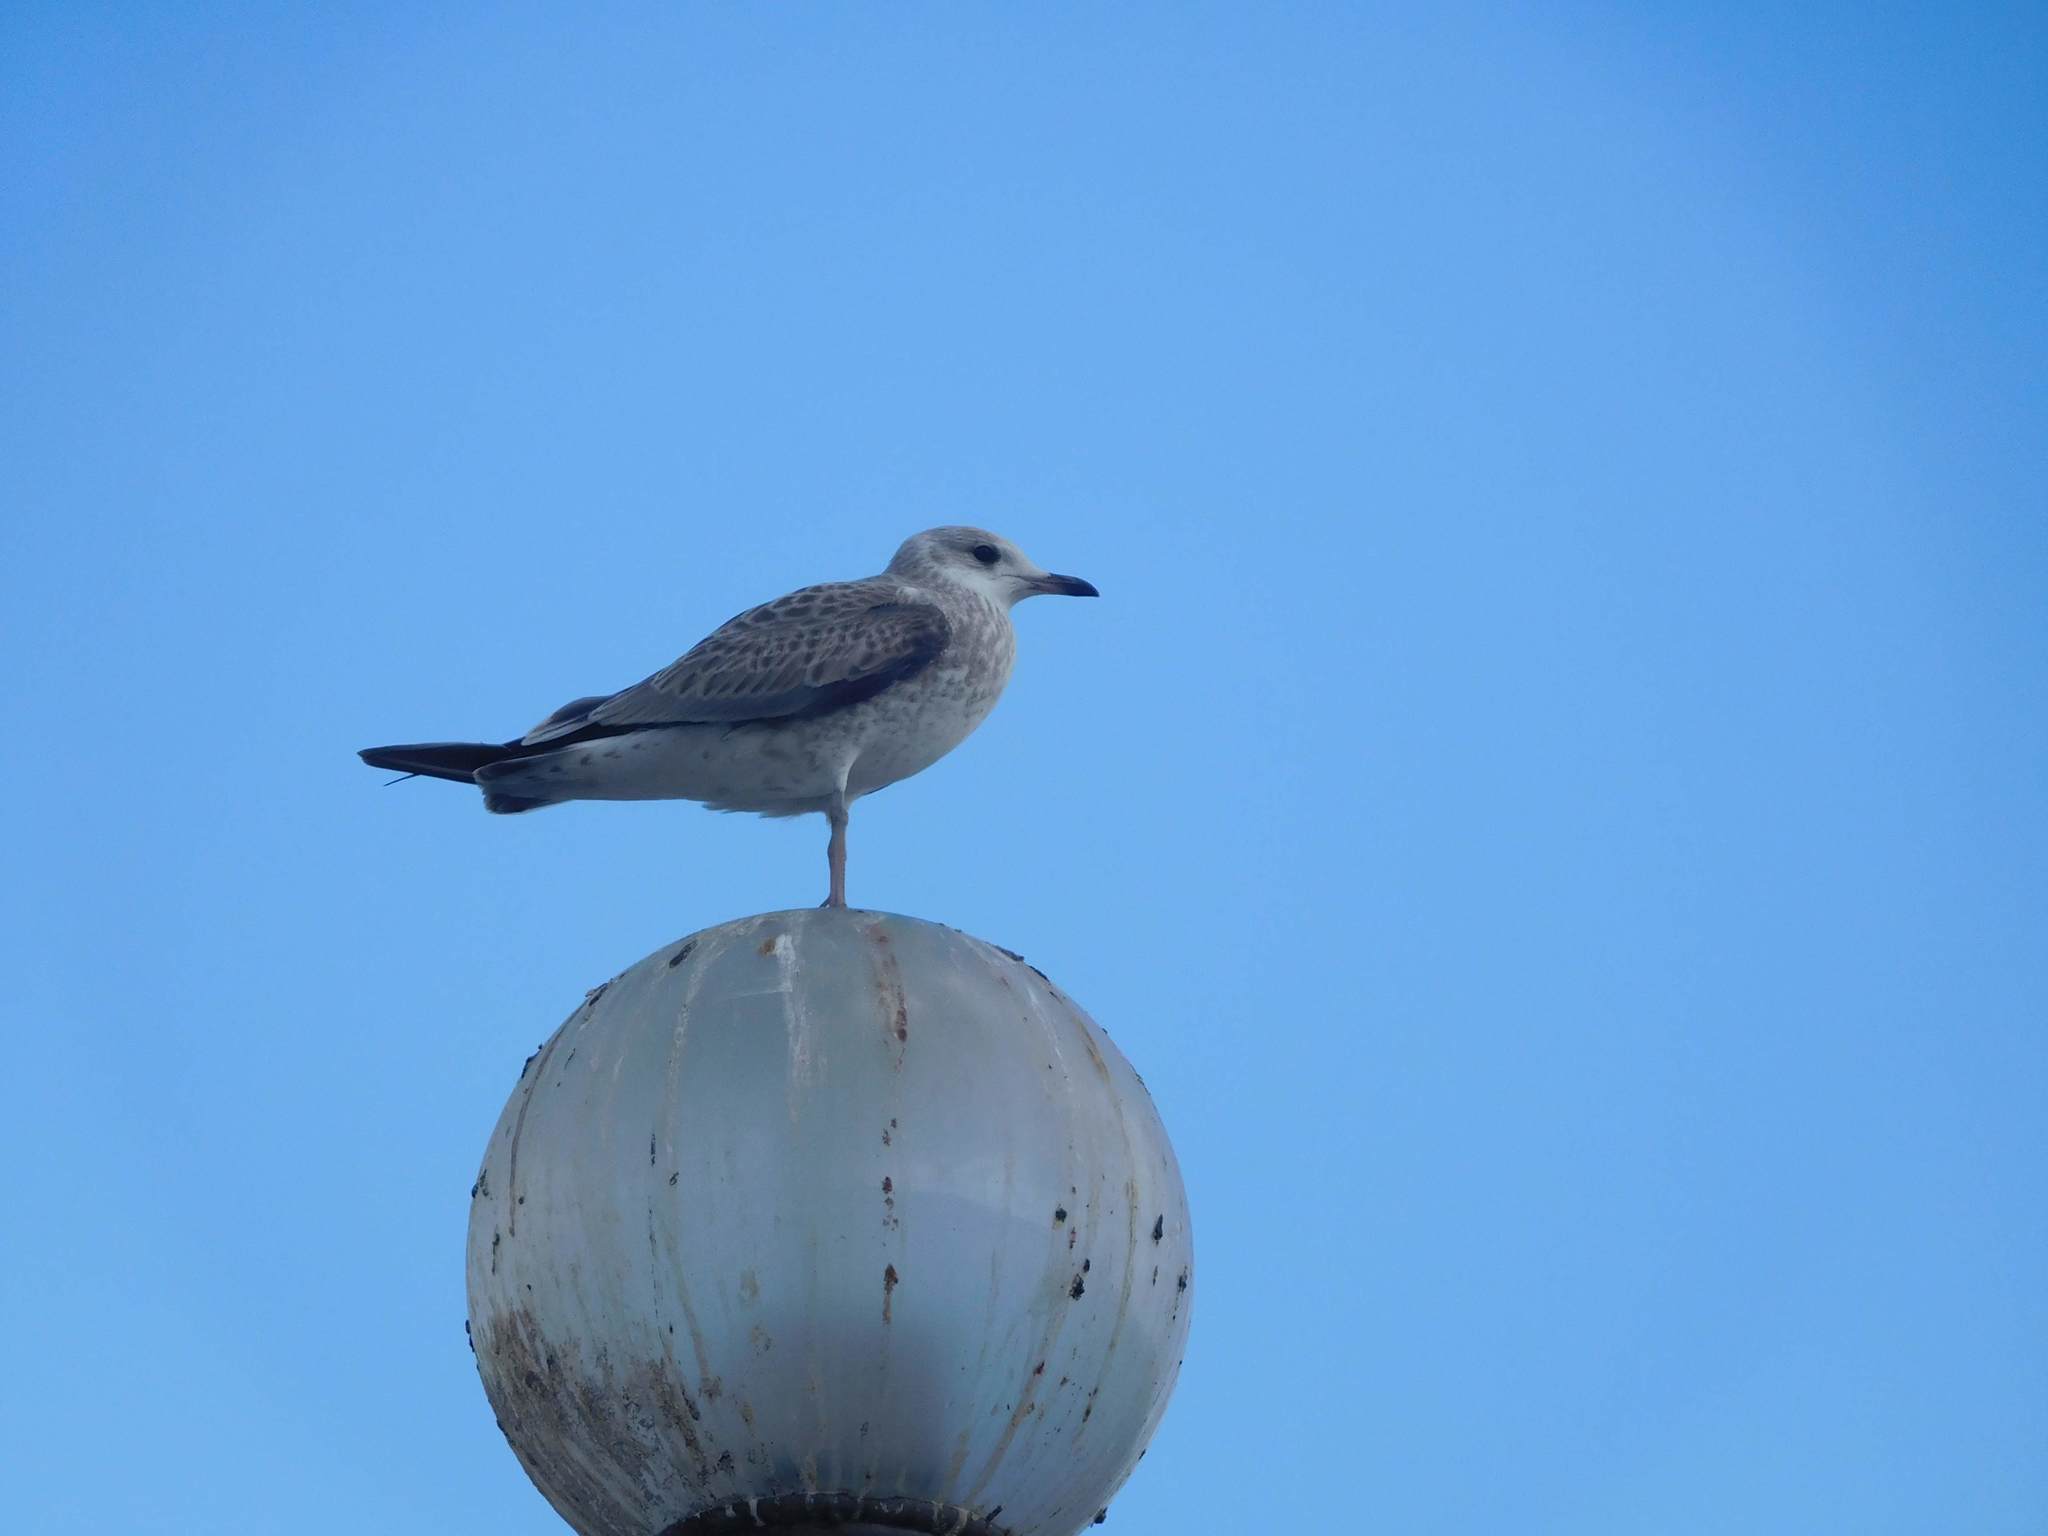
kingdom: Animalia
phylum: Chordata
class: Aves
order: Charadriiformes
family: Laridae
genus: Larus
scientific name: Larus canus
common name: Mew gull
